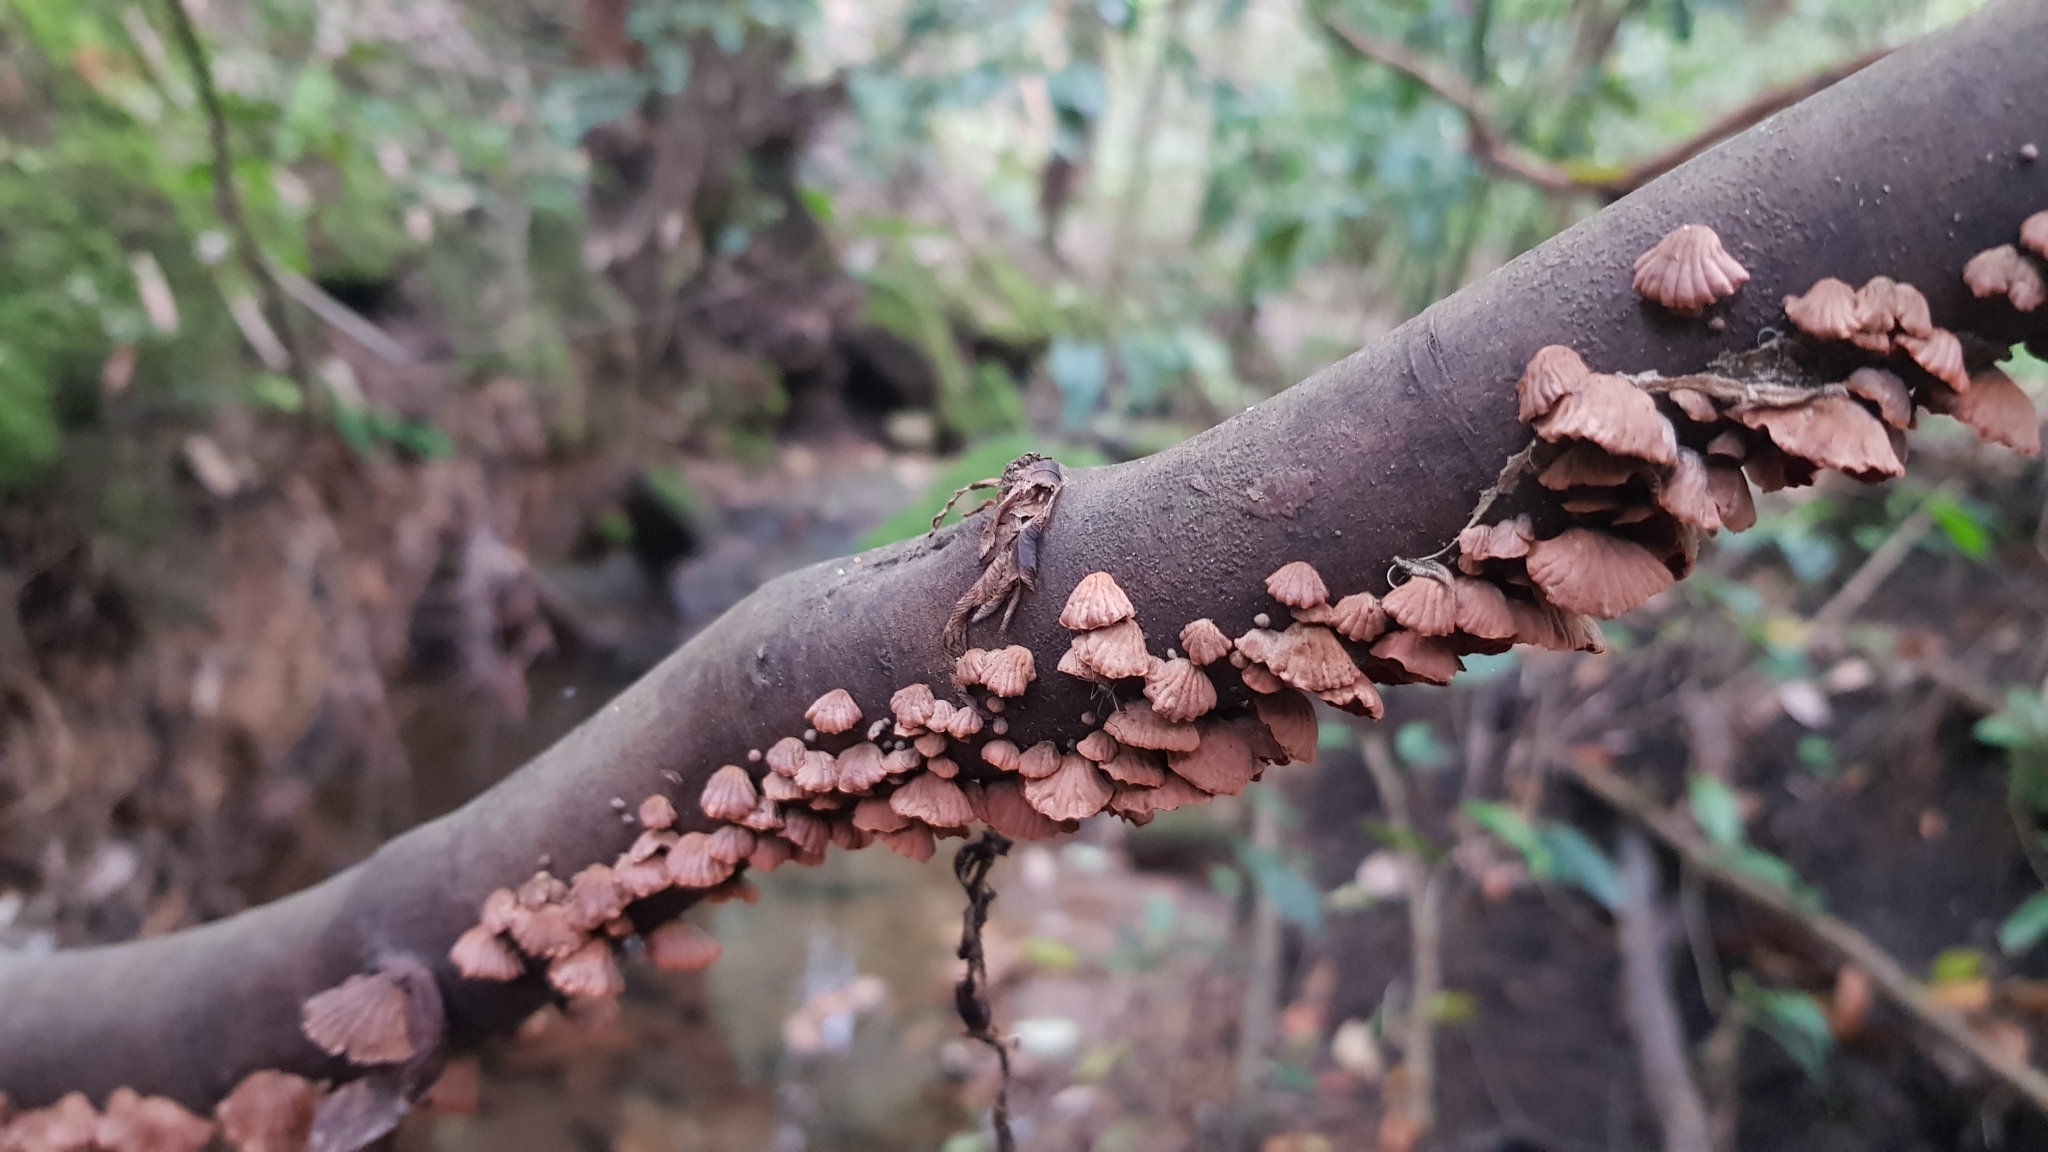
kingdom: Fungi
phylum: Basidiomycota
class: Agaricomycetes
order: Agaricales
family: Omphalotaceae
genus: Anthracophyllum
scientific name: Anthracophyllum archeri
